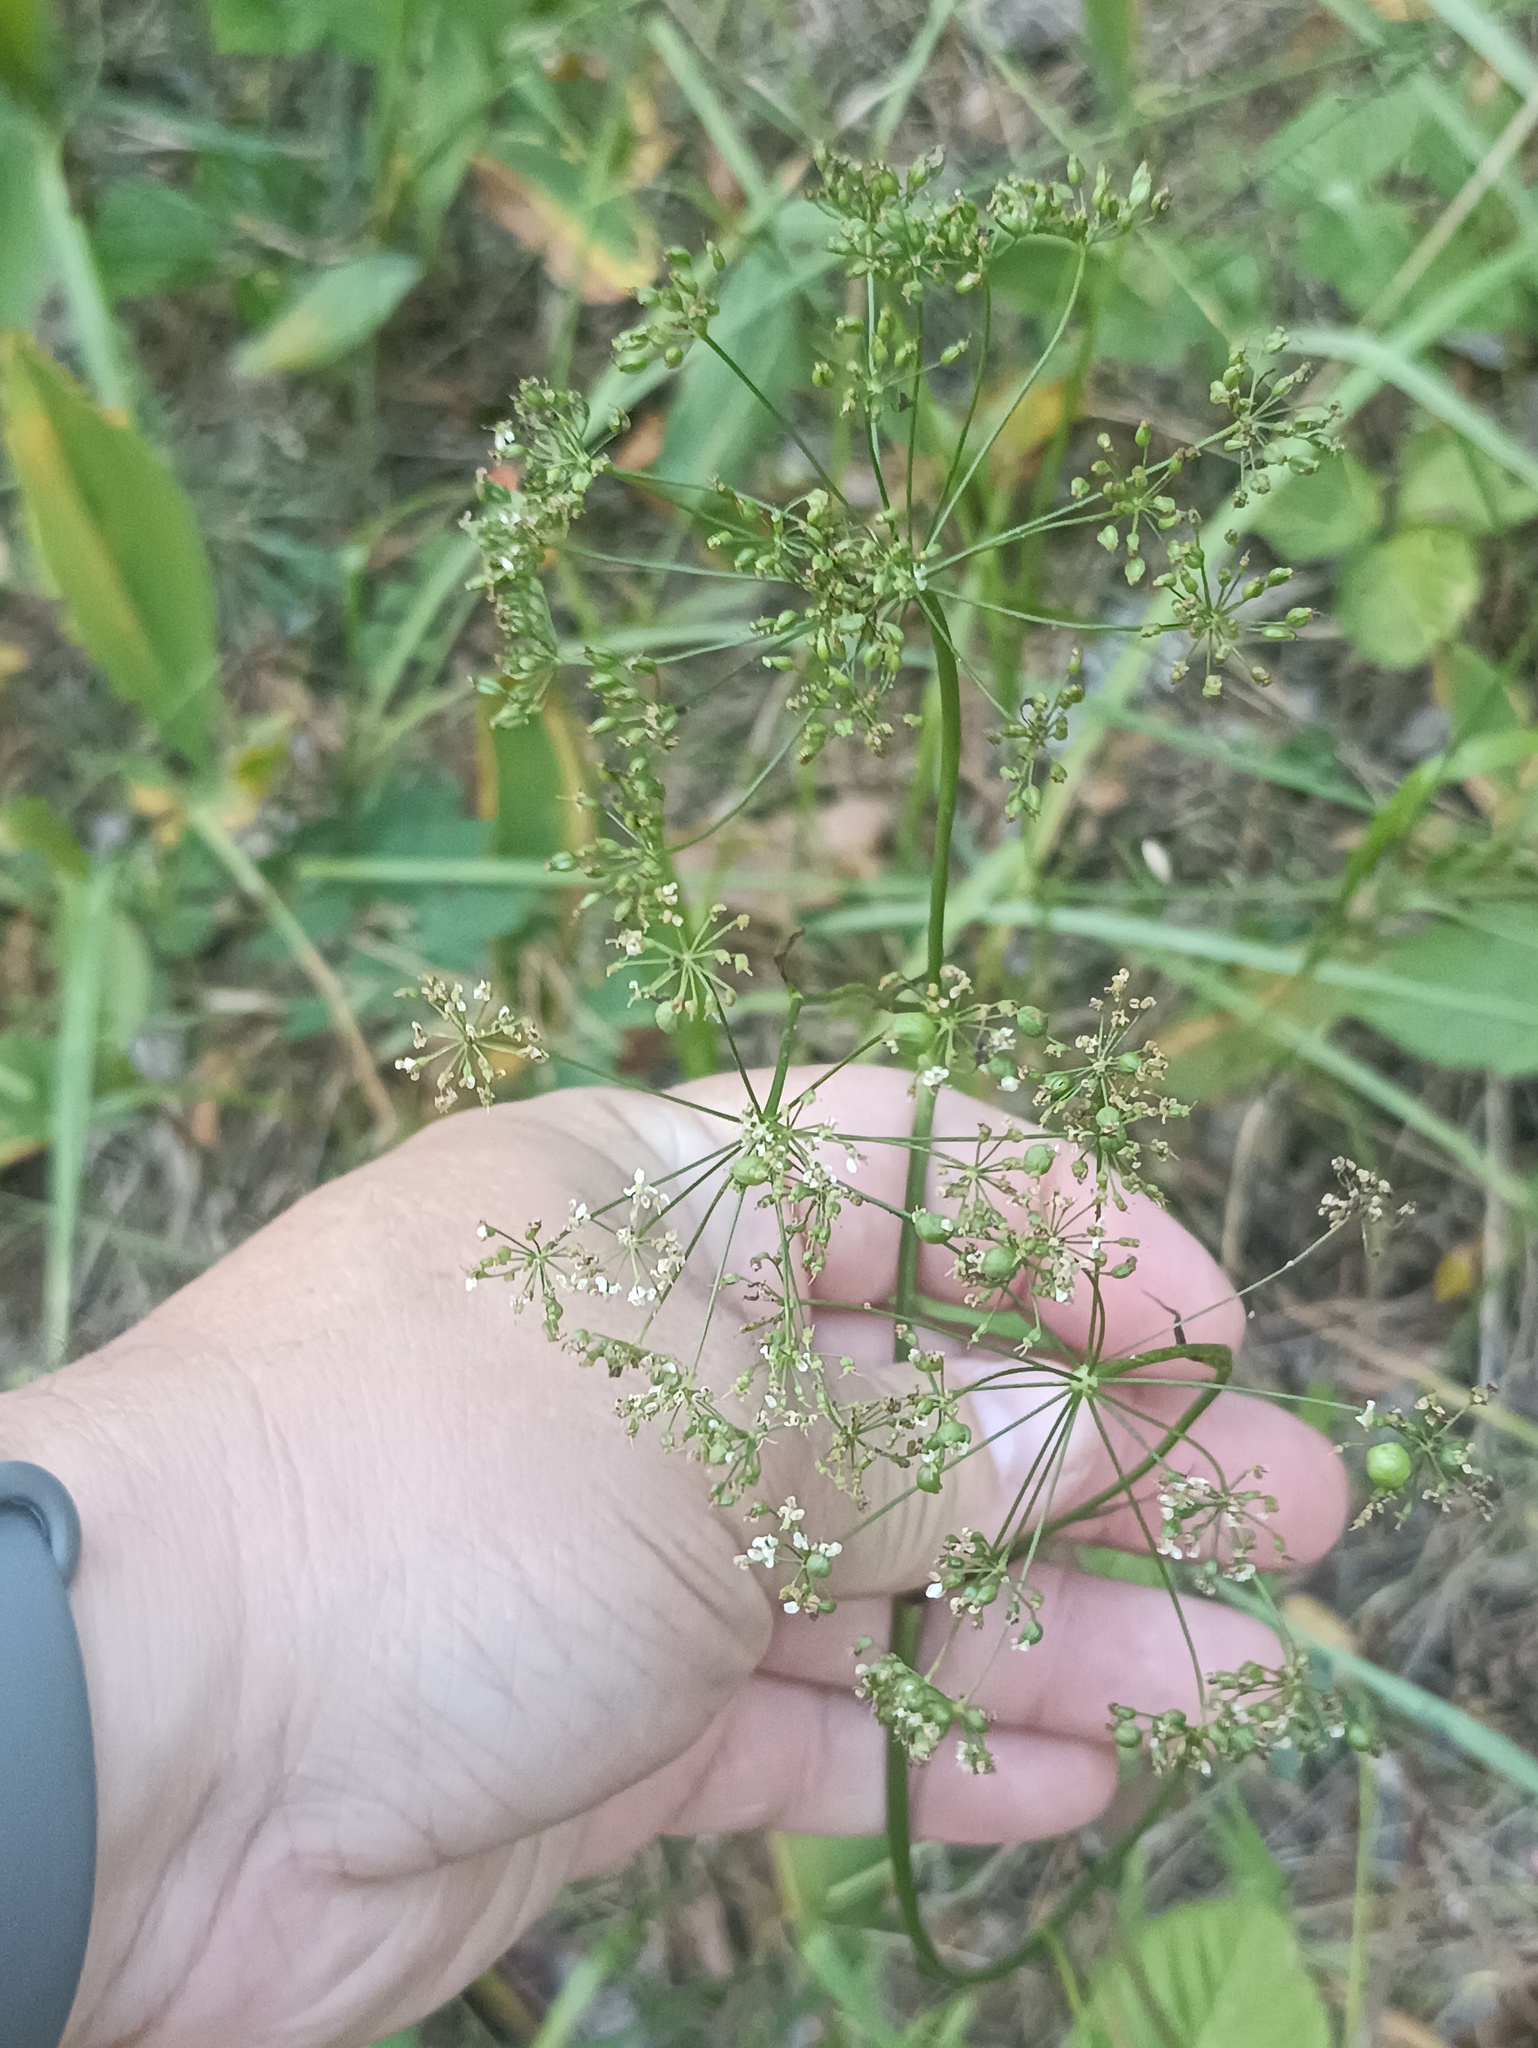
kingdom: Plantae
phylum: Tracheophyta
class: Magnoliopsida
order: Apiales
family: Apiaceae
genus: Pimpinella
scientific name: Pimpinella saxifraga
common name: Burnet-saxifrage
